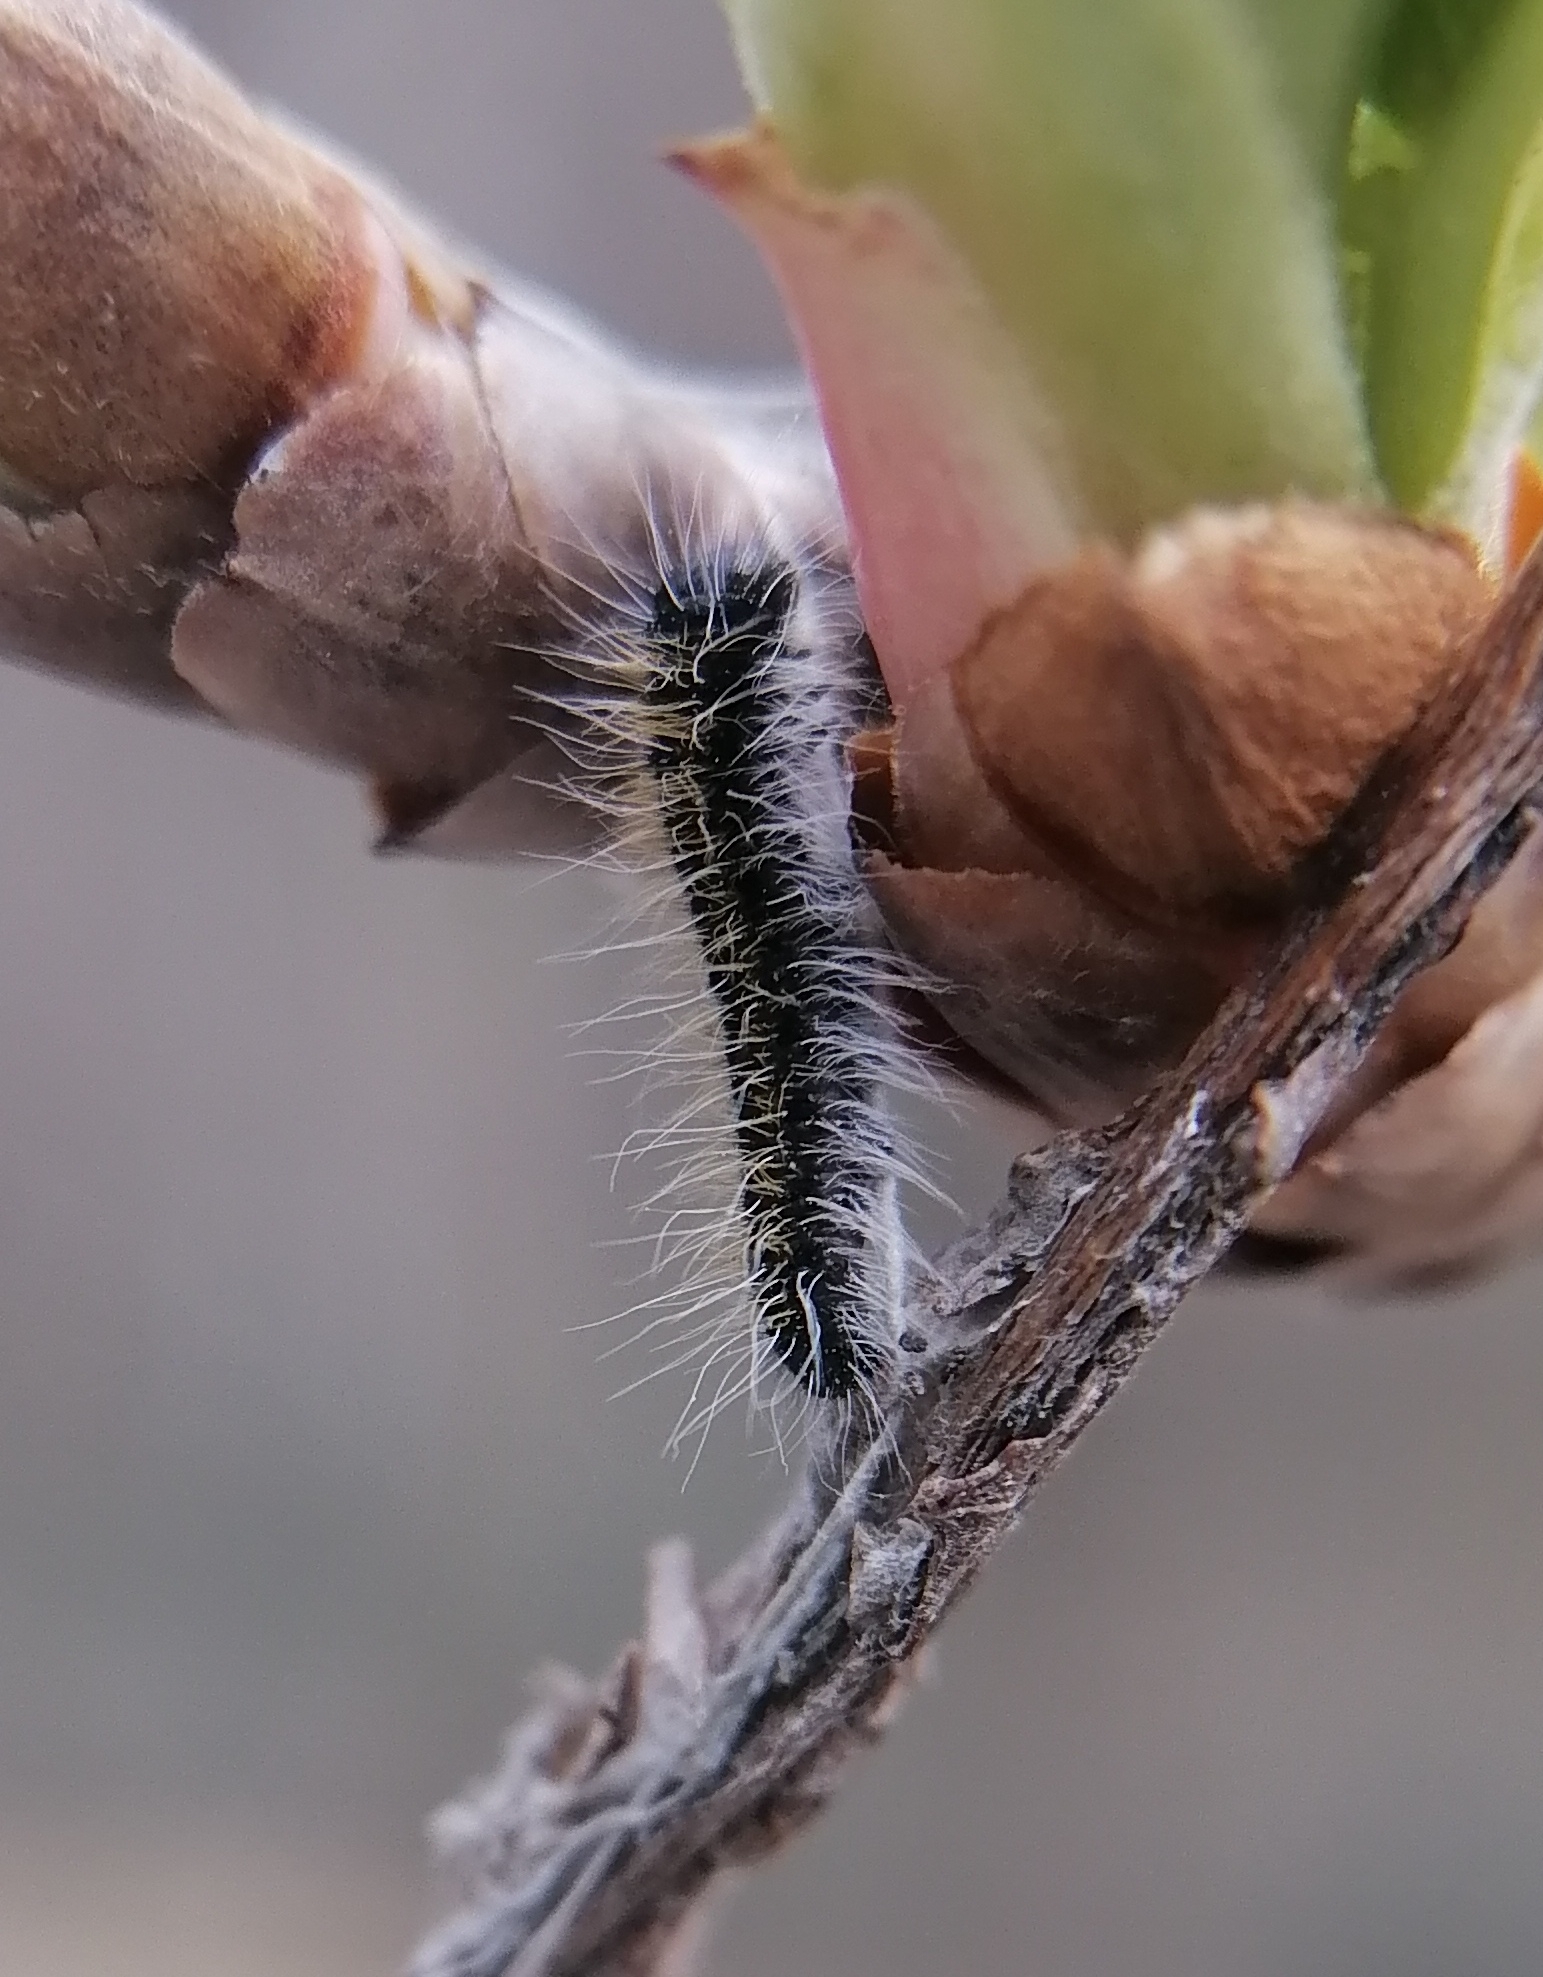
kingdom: Animalia
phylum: Arthropoda
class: Insecta
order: Lepidoptera
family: Pieridae
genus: Aporia
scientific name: Aporia crataegi
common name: Black-veined white
